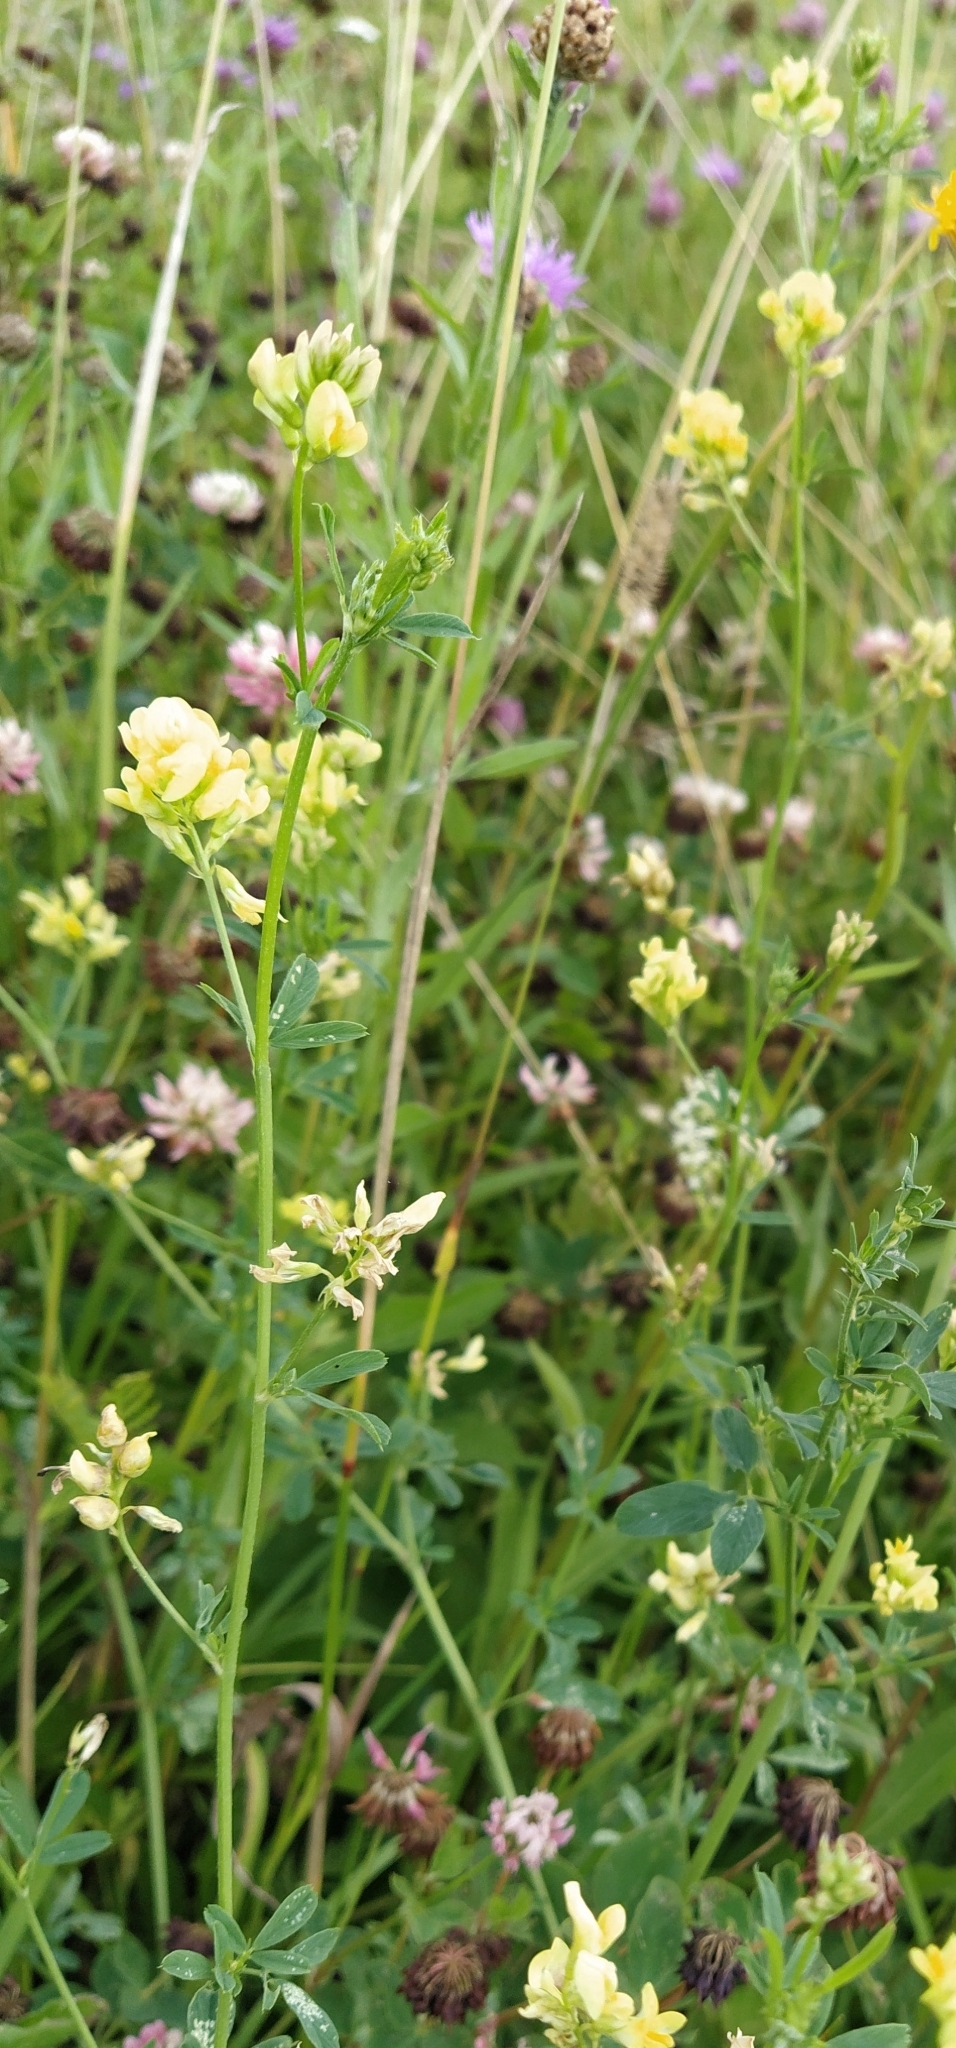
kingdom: Plantae
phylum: Tracheophyta
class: Magnoliopsida
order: Fabales
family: Fabaceae
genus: Medicago
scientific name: Medicago falcata
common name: Sickle medick
